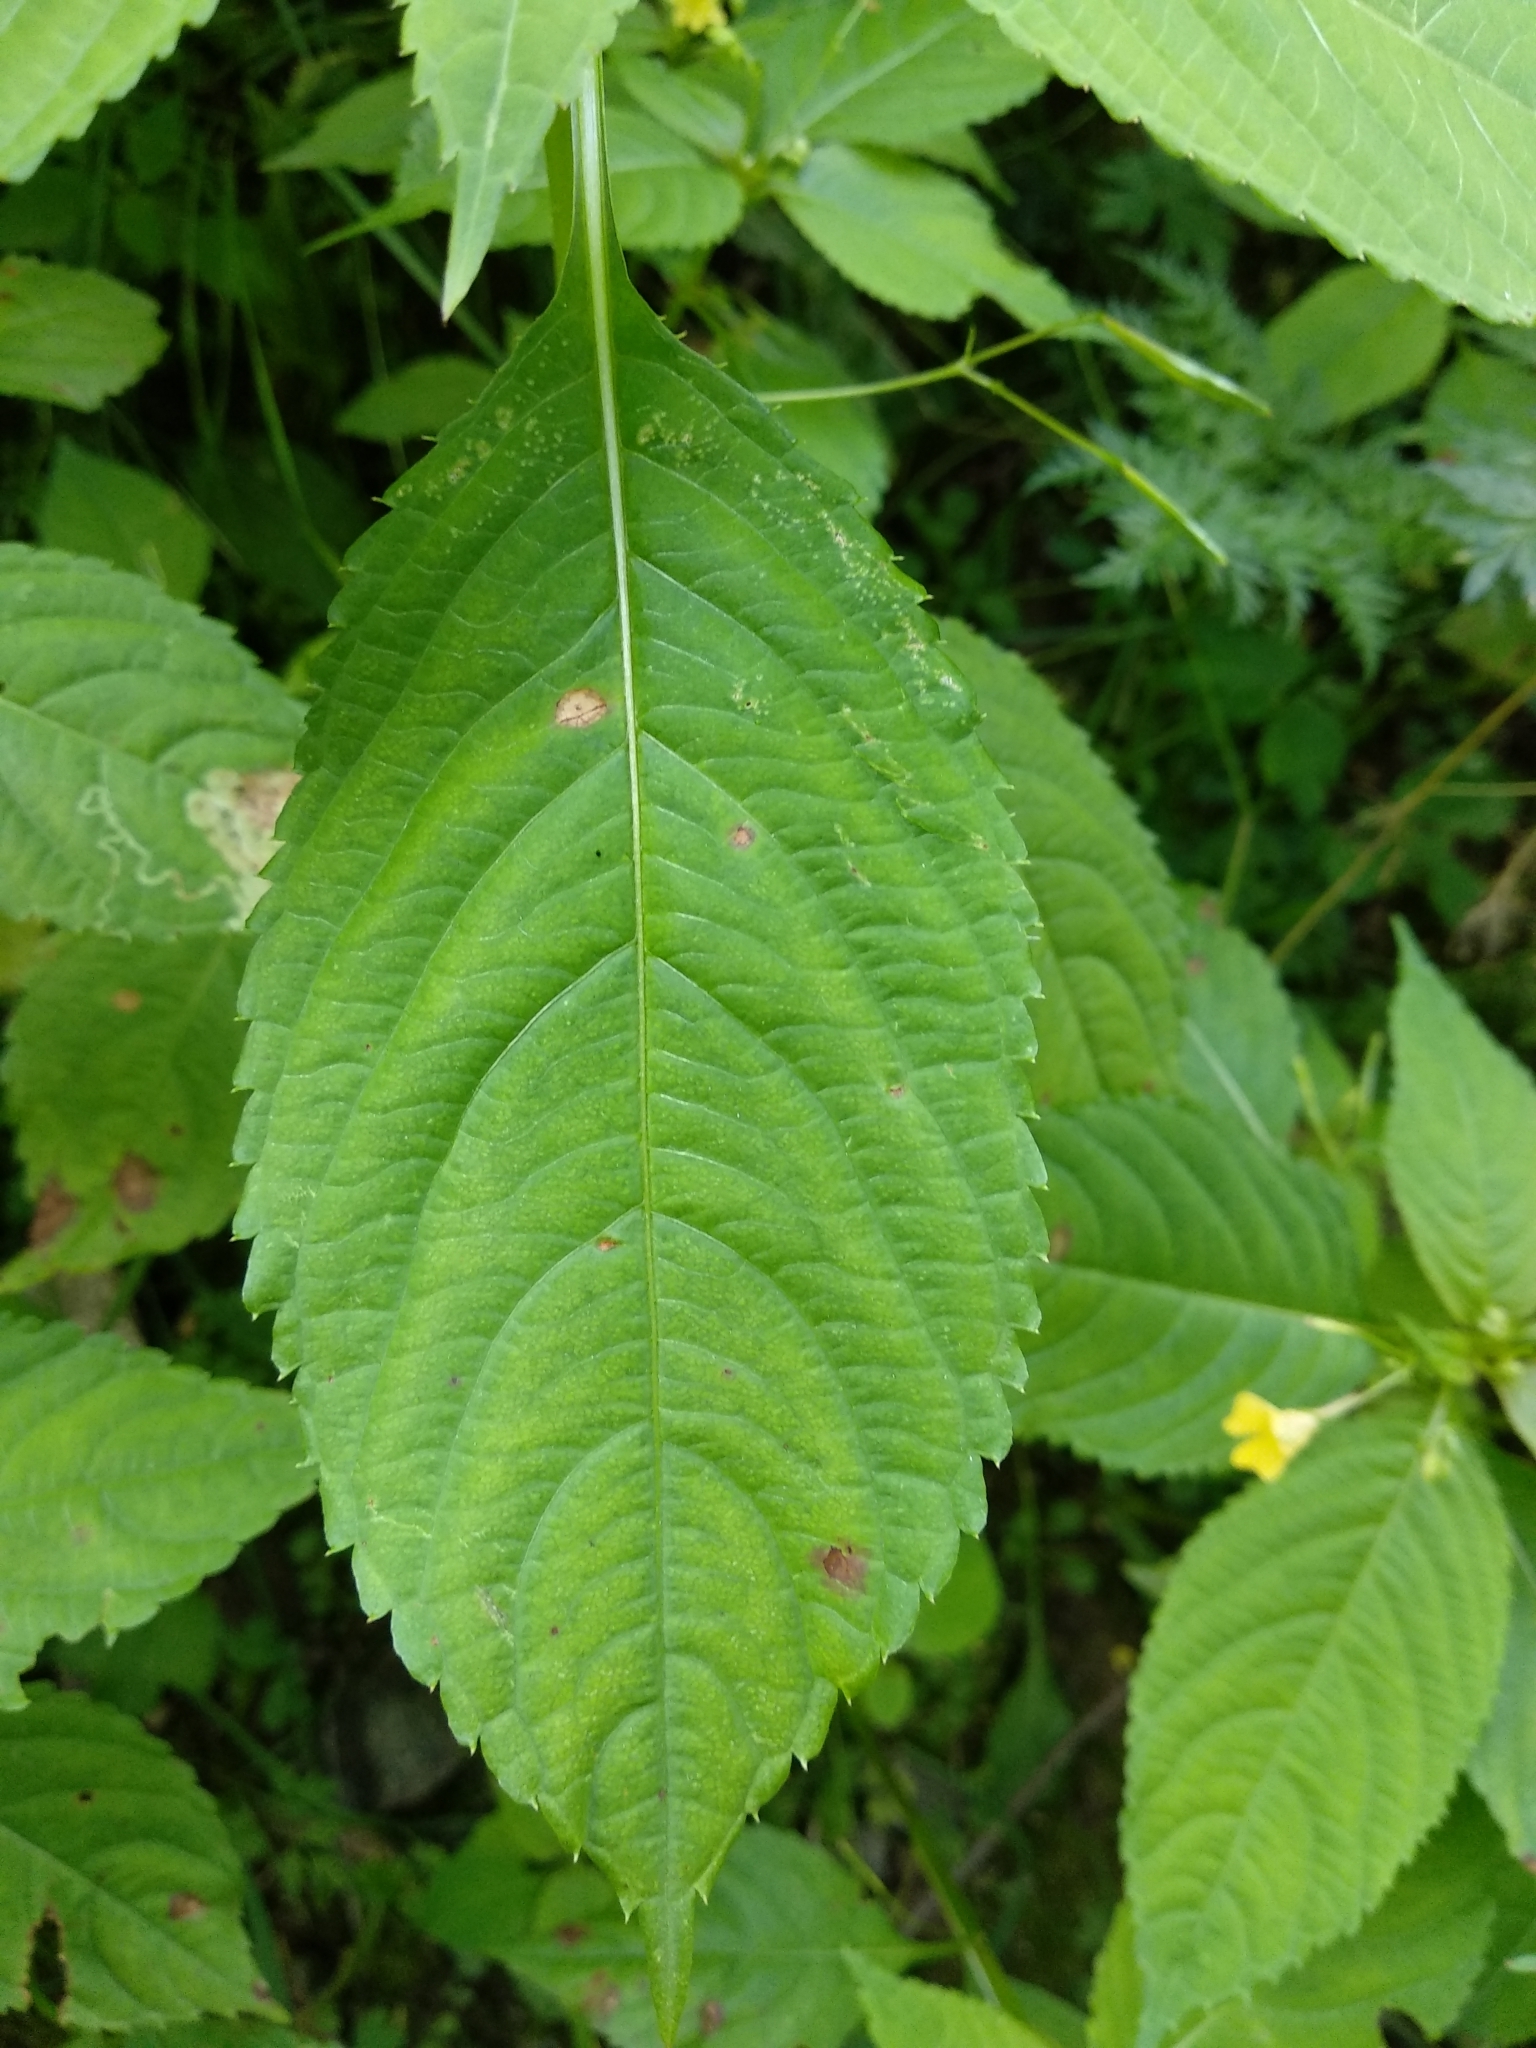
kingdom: Plantae
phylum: Tracheophyta
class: Magnoliopsida
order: Ericales
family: Balsaminaceae
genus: Impatiens
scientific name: Impatiens parviflora
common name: Small balsam
